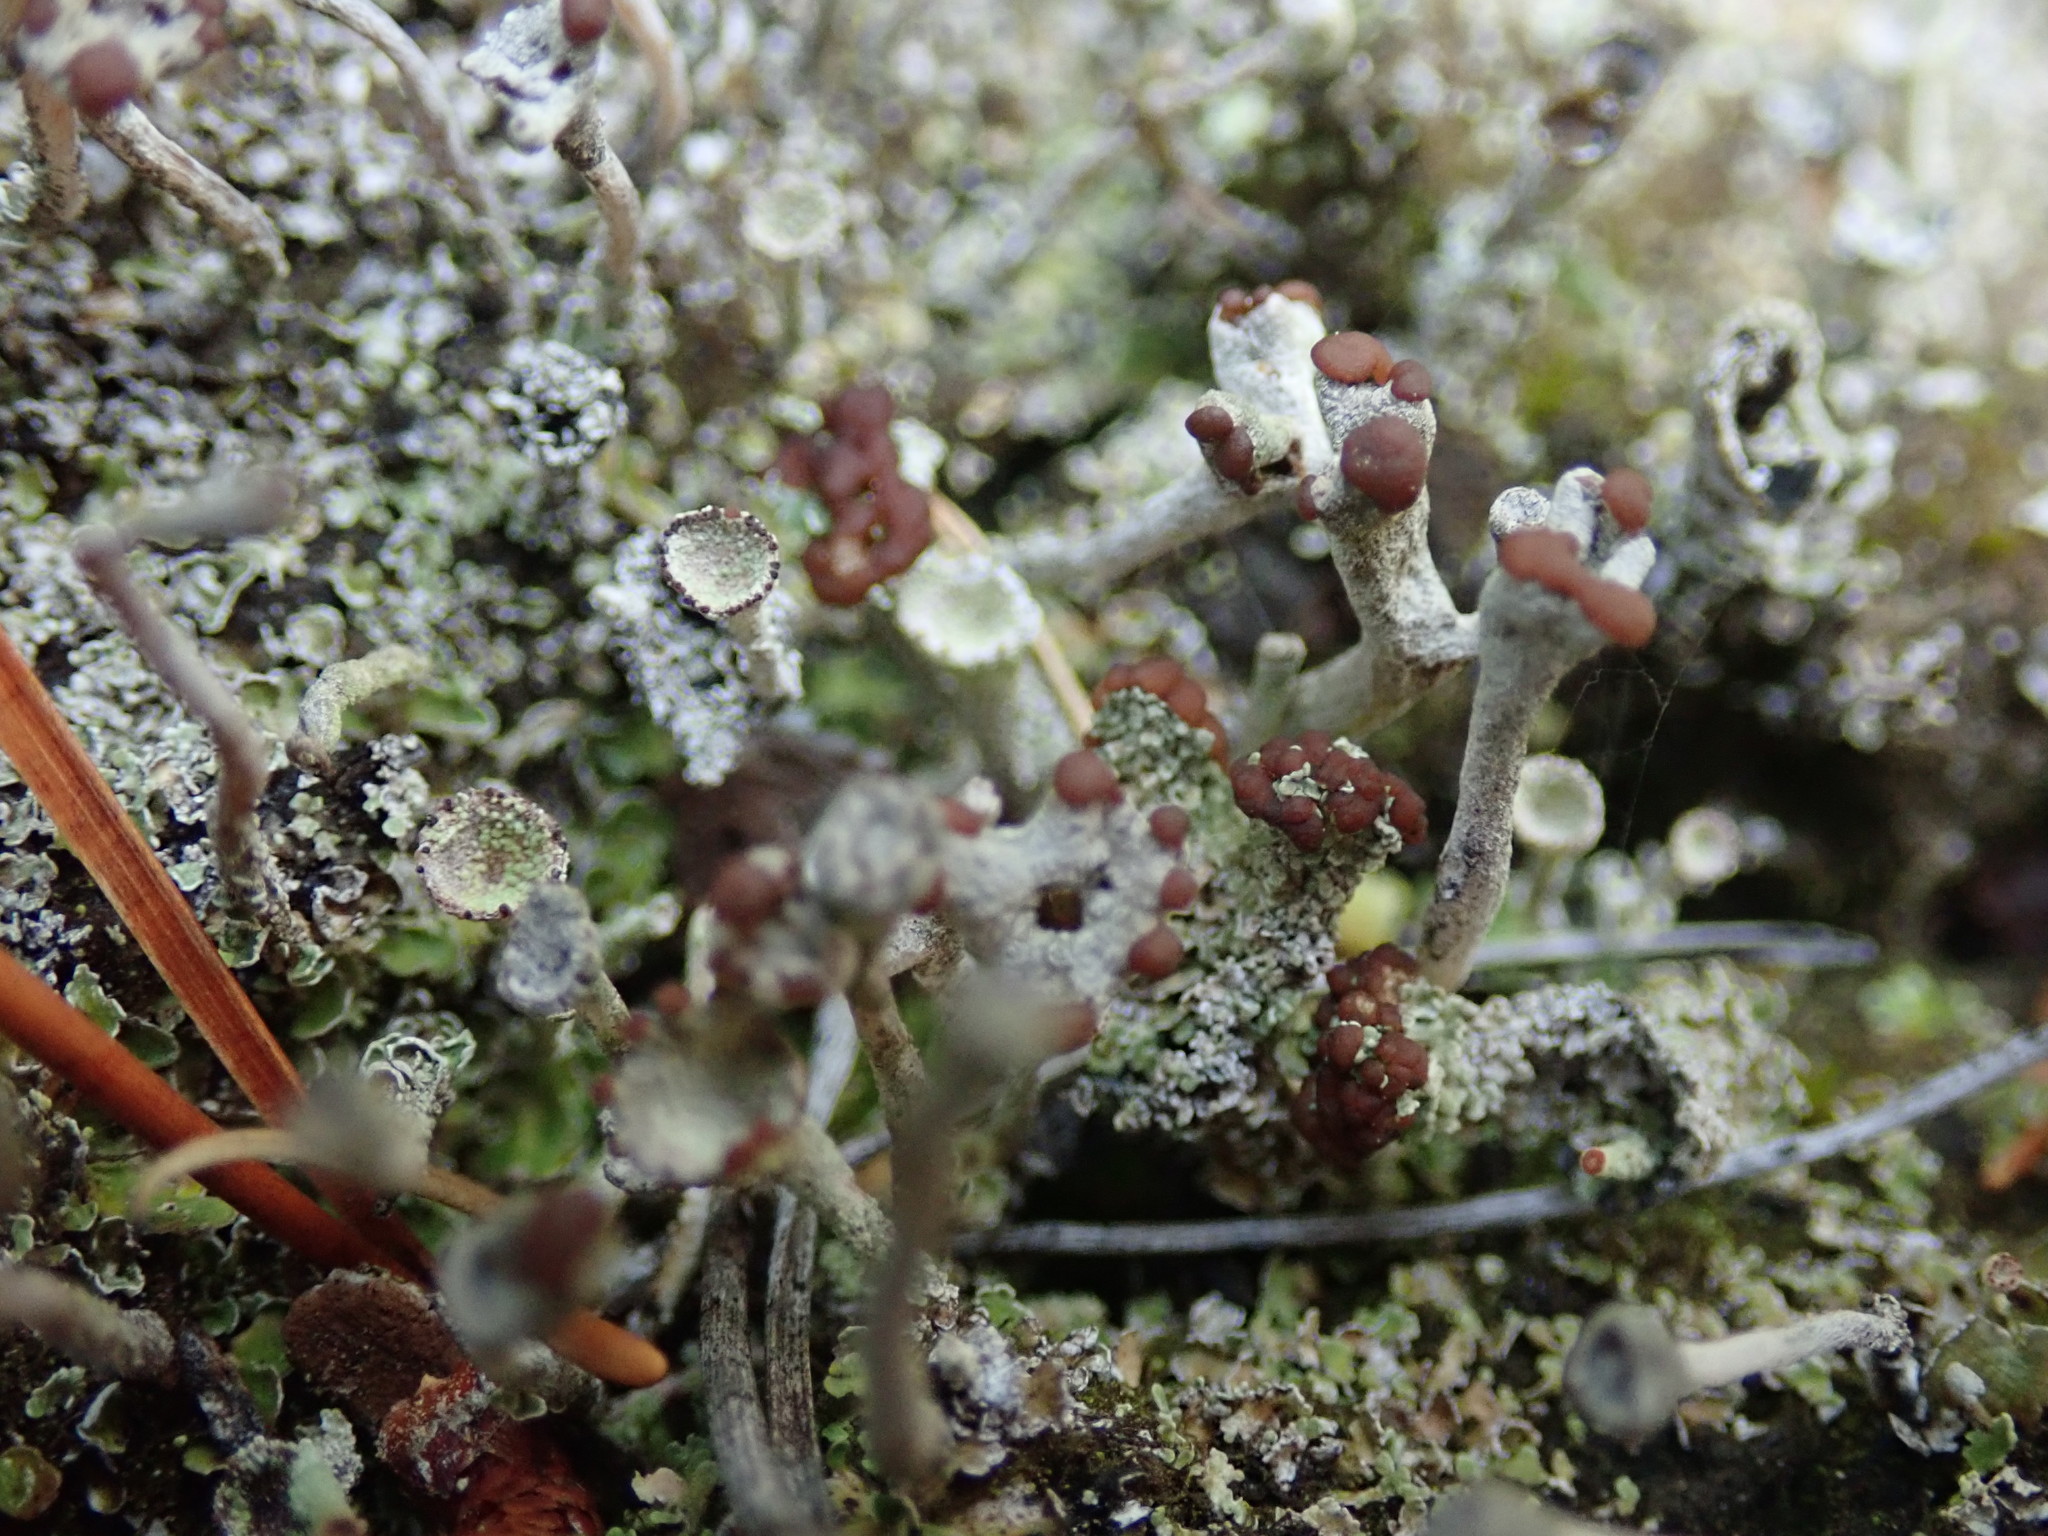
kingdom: Fungi
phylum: Ascomycota
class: Lecanoromycetes
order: Lecanorales
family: Cladoniaceae
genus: Cladonia
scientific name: Cladonia cariosa
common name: Split-peg lichen
